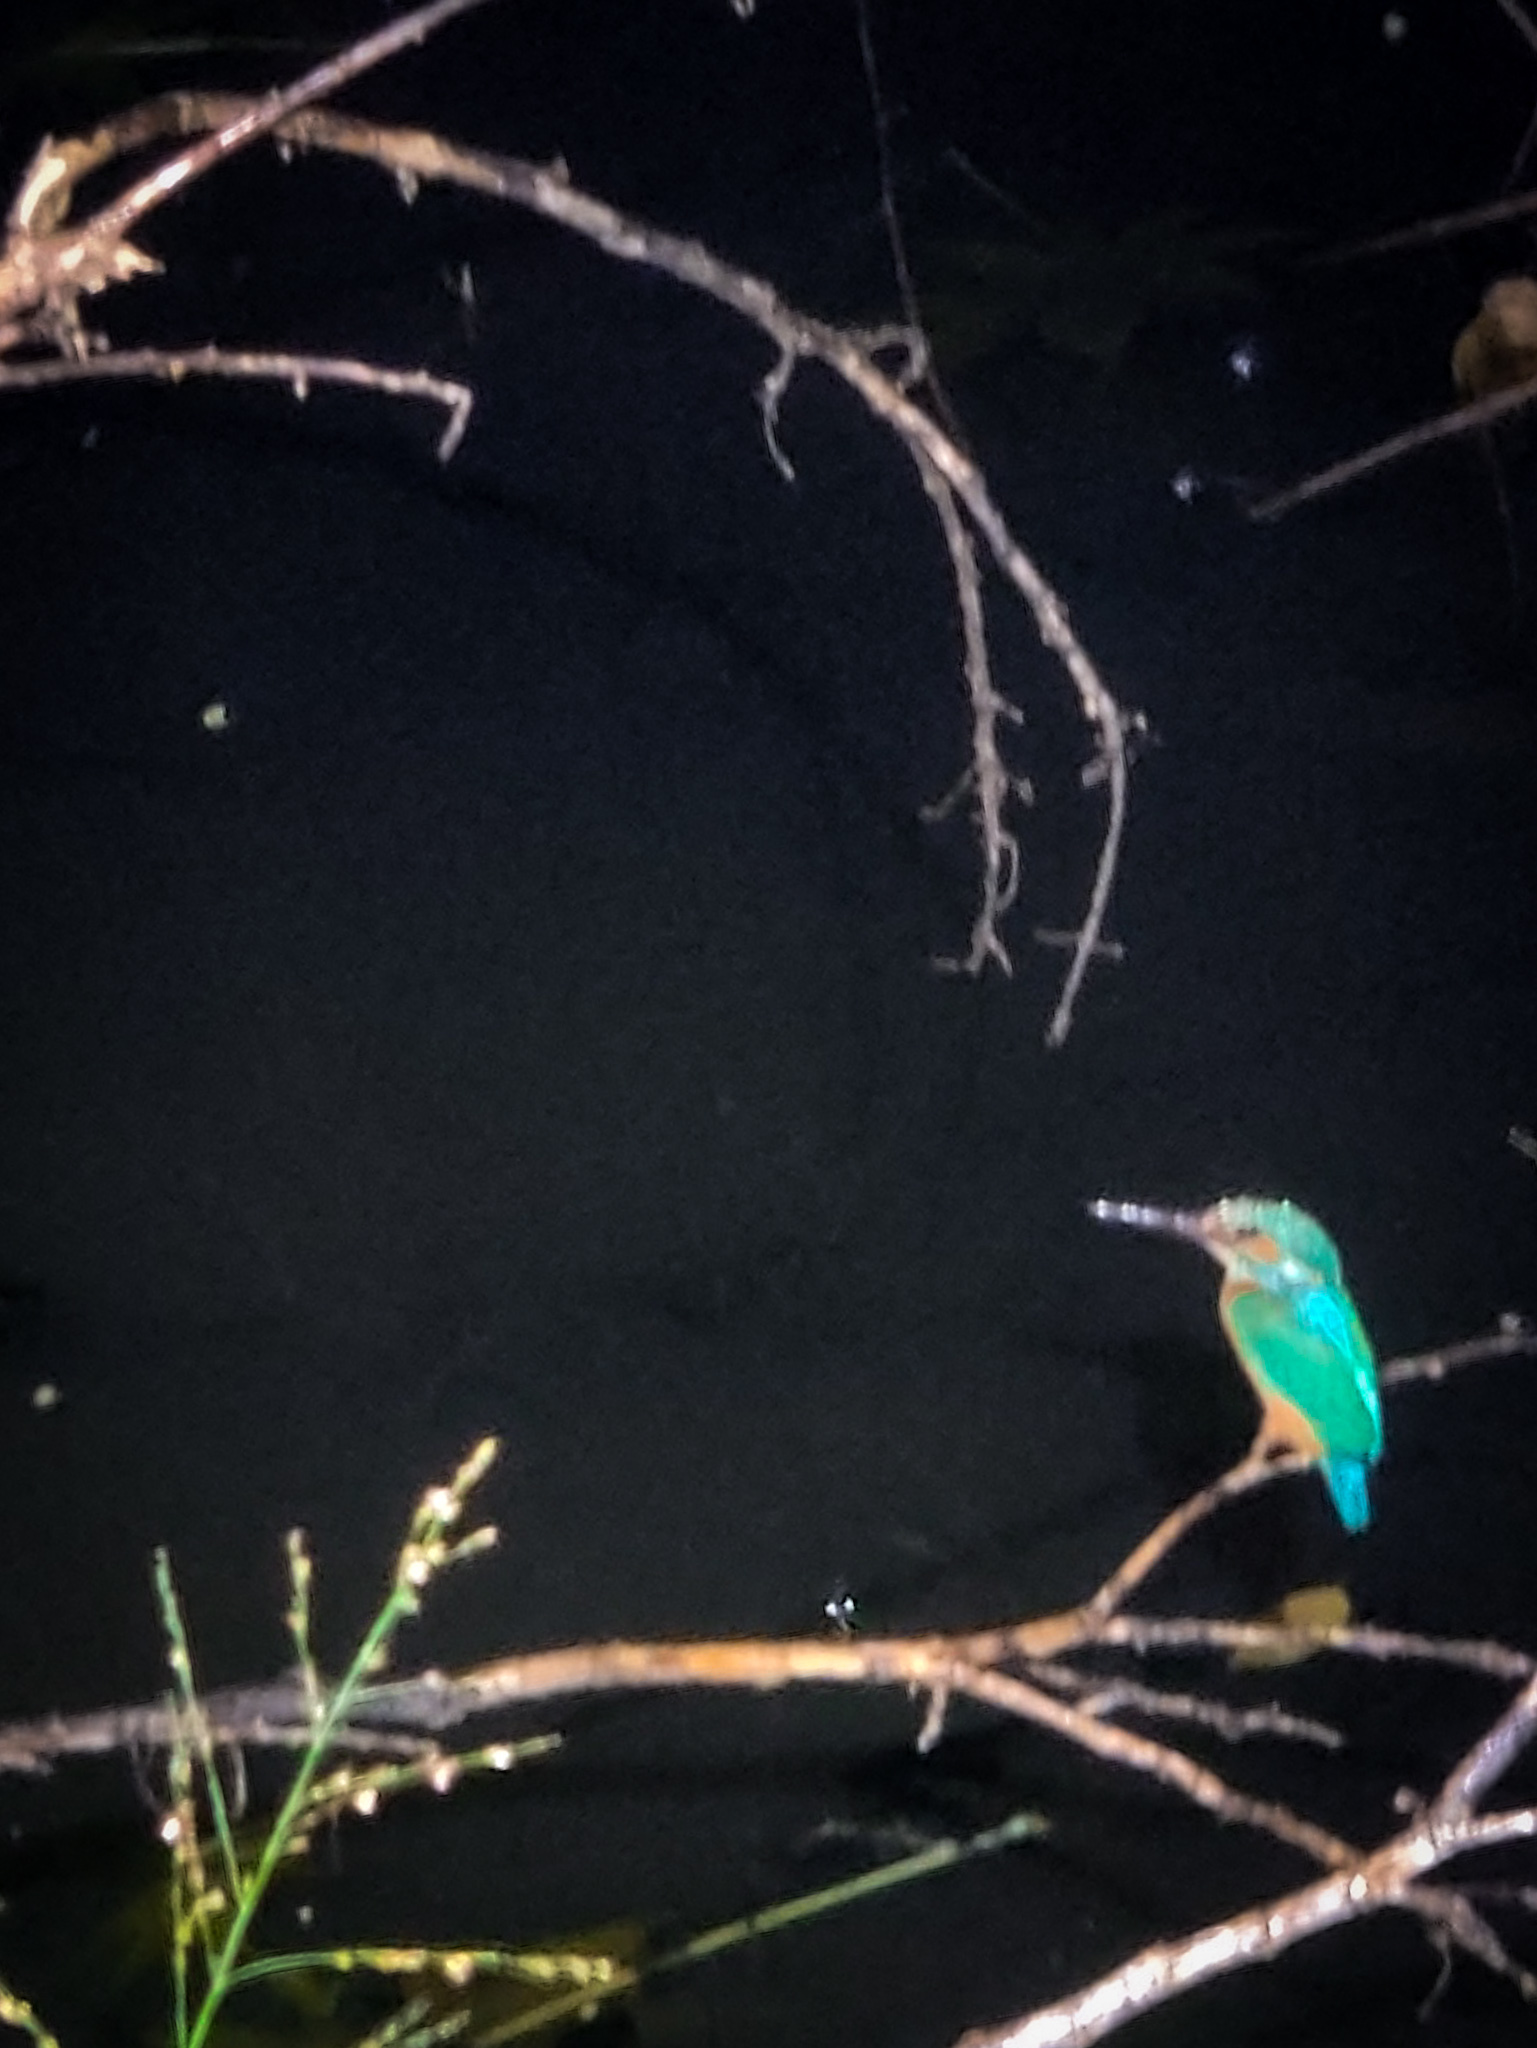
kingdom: Animalia
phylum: Chordata
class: Aves
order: Coraciiformes
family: Alcedinidae
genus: Alcedo
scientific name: Alcedo atthis
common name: Common kingfisher
